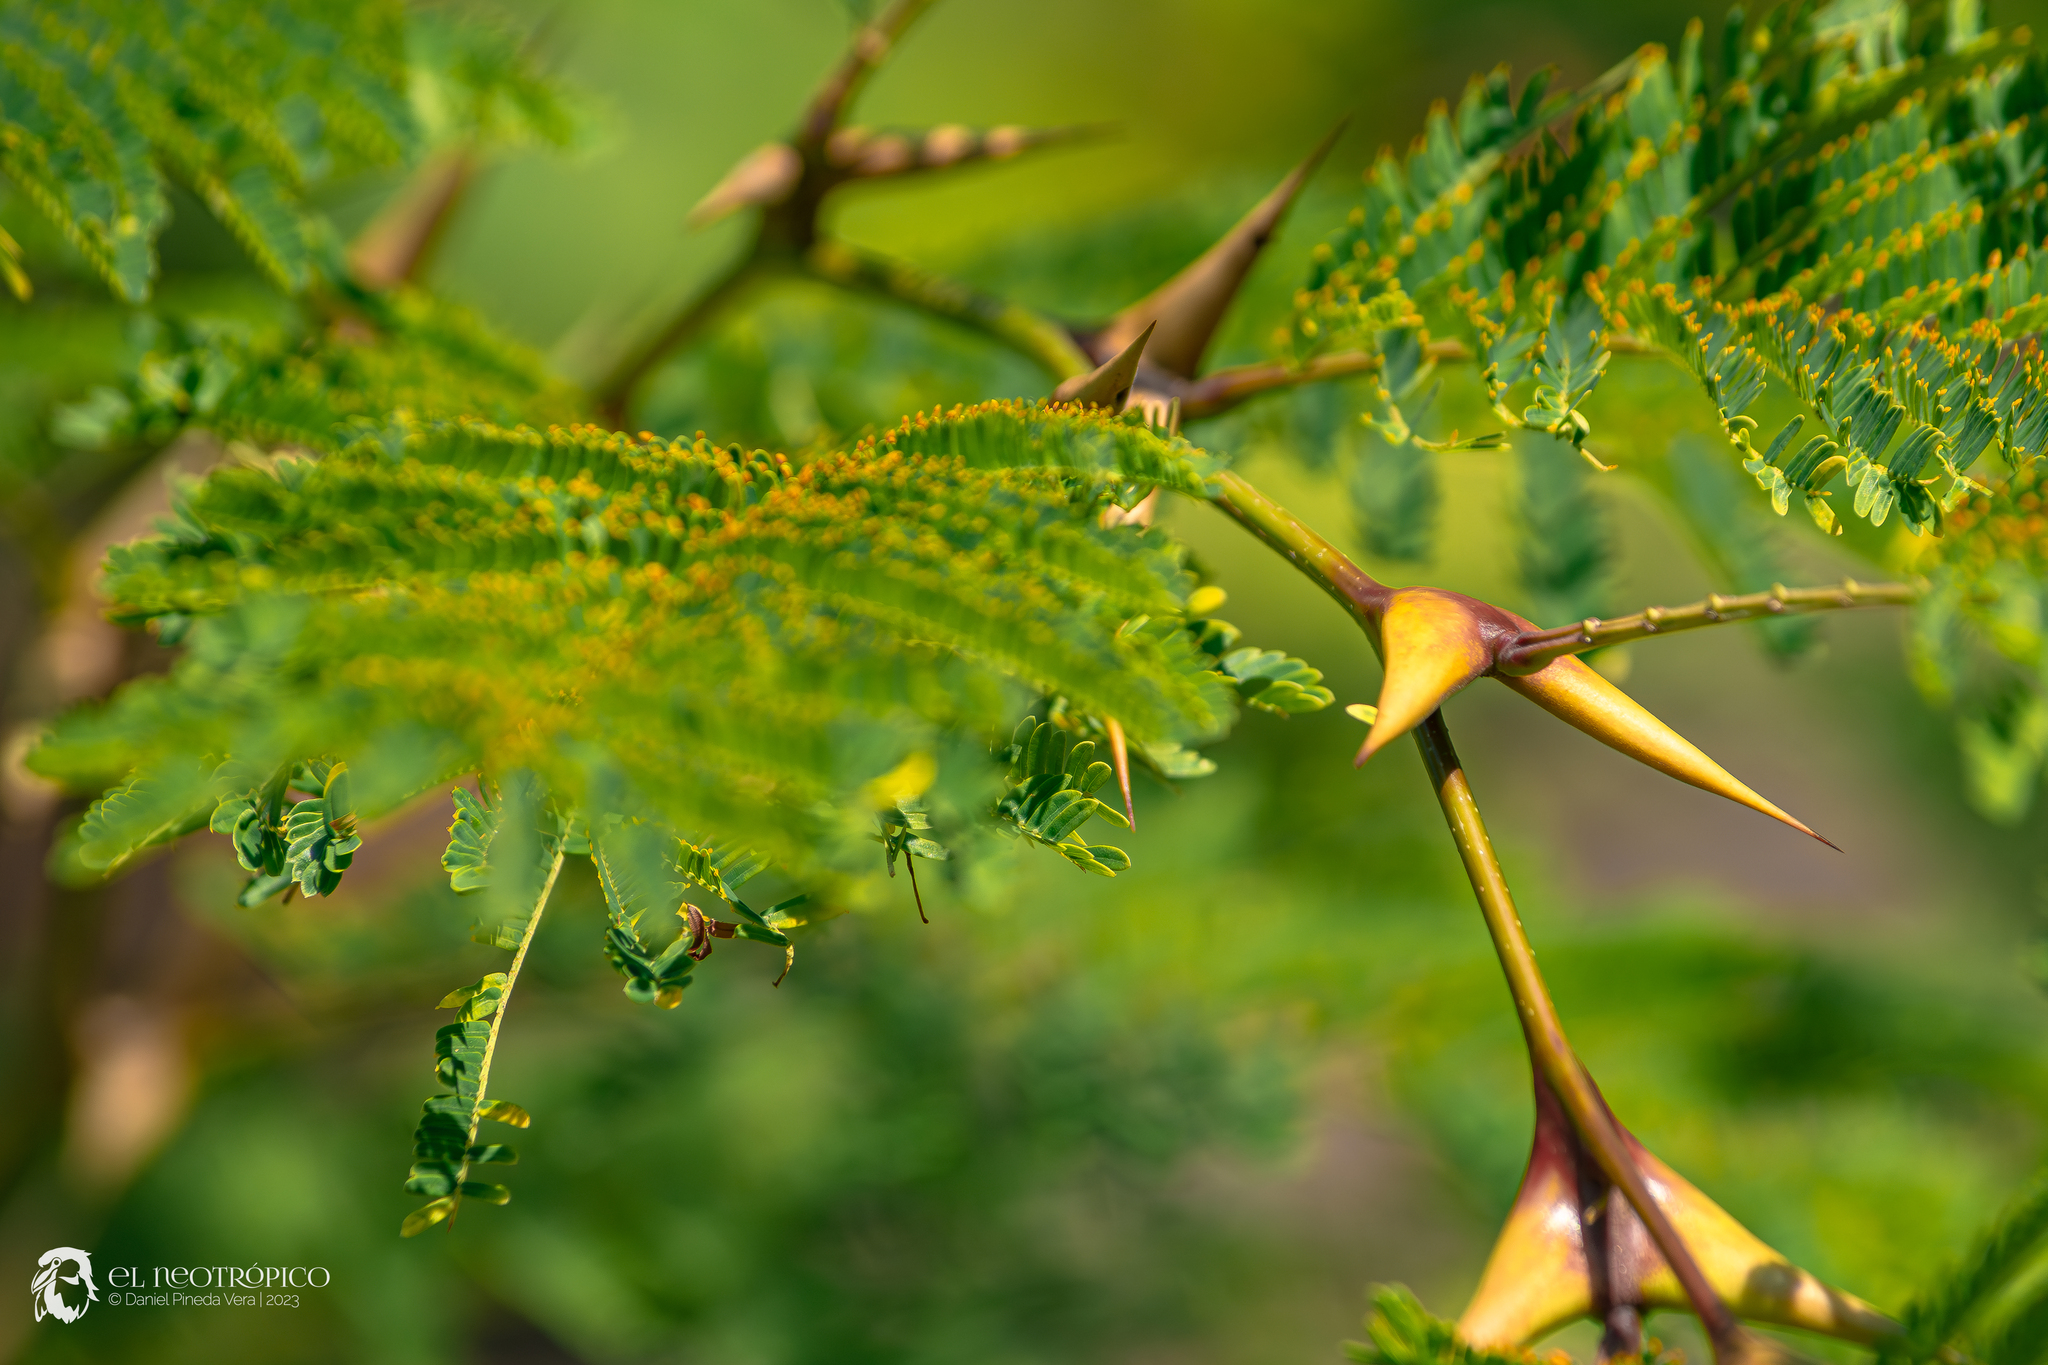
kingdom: Plantae
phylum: Tracheophyta
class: Magnoliopsida
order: Fabales
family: Fabaceae
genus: Vachellia
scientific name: Vachellia hindsii
